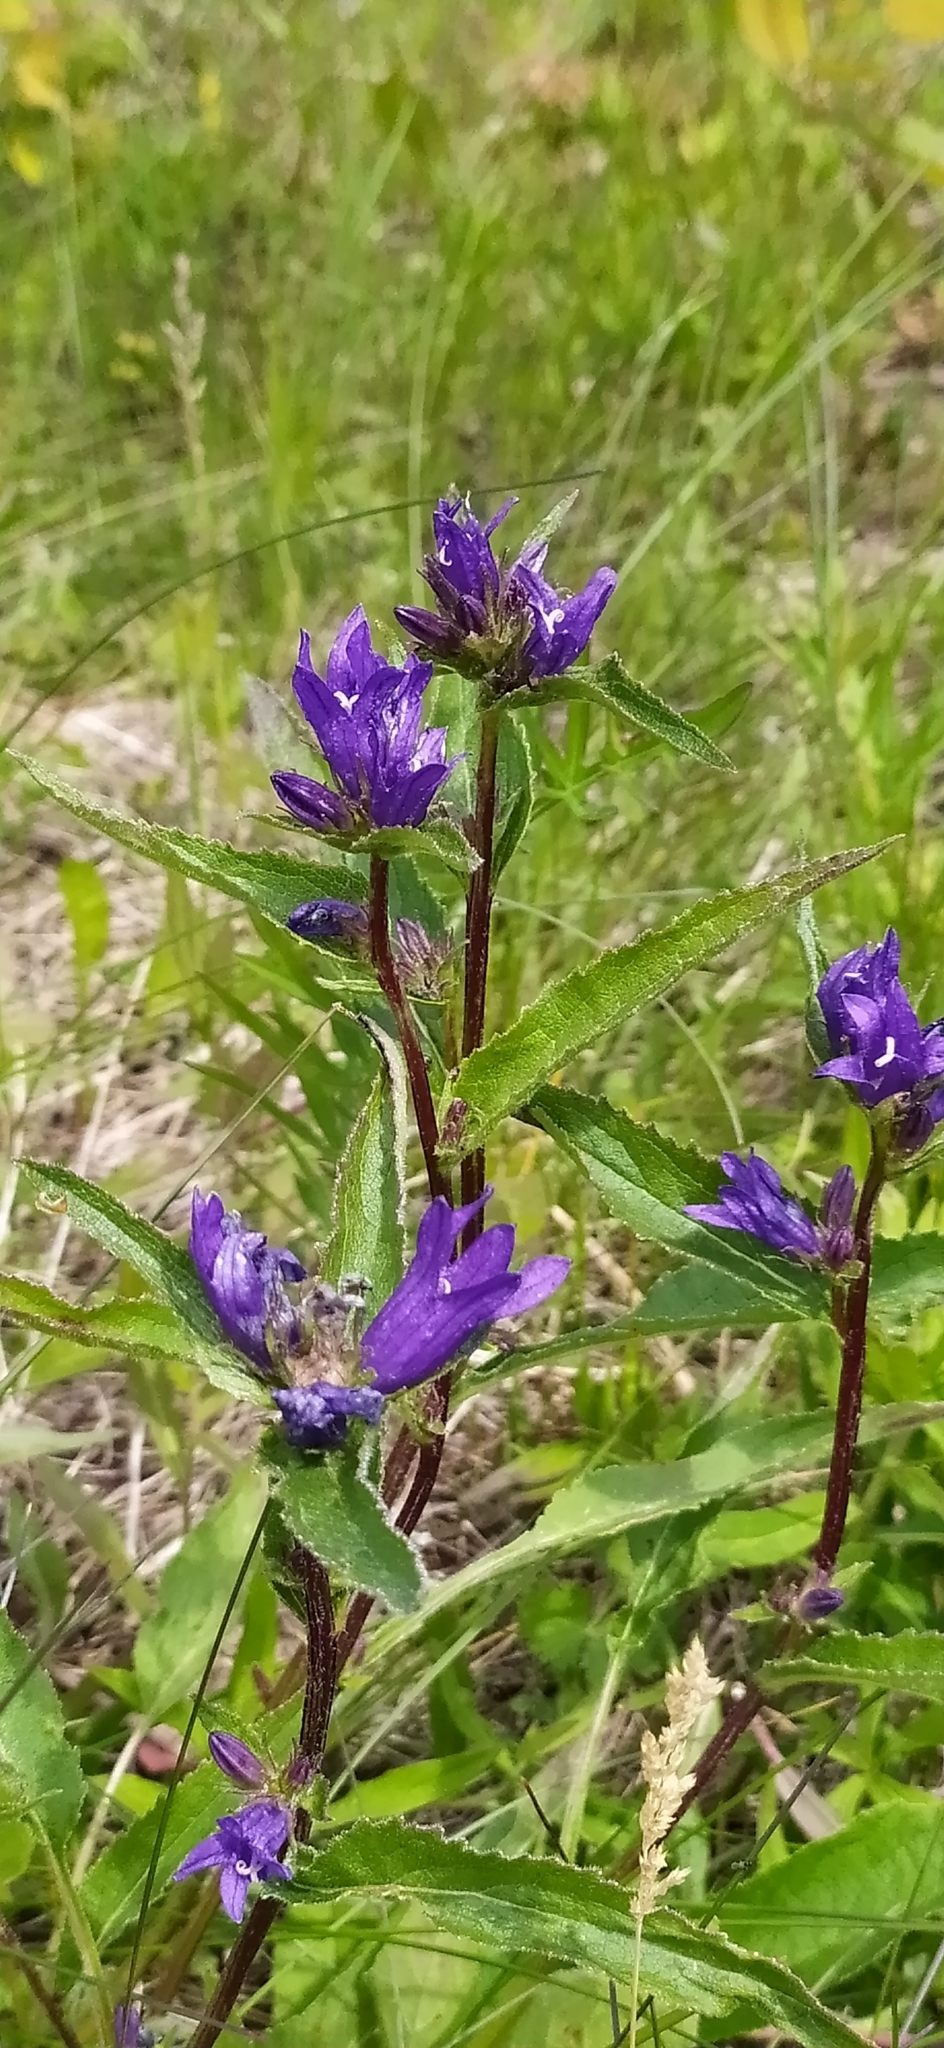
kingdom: Plantae
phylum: Tracheophyta
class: Magnoliopsida
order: Asterales
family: Campanulaceae
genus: Campanula
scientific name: Campanula glomerata
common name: Clustered bellflower
